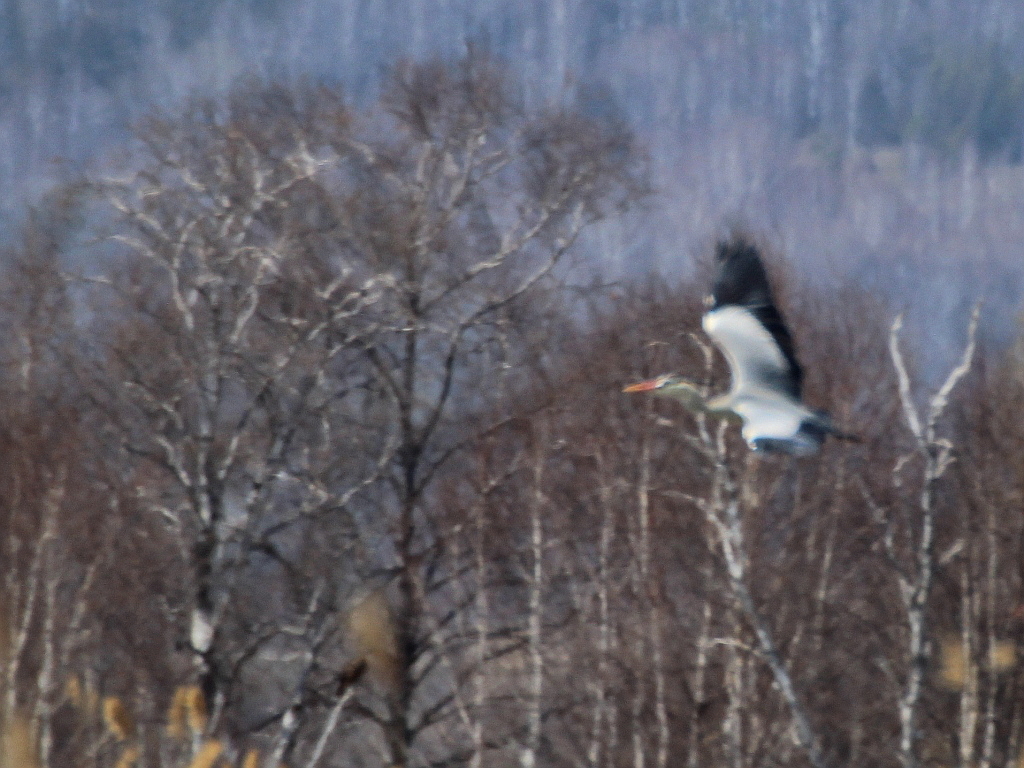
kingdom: Animalia
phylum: Chordata
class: Aves
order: Pelecaniformes
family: Ardeidae
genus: Ardea
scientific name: Ardea cinerea
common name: Grey heron
